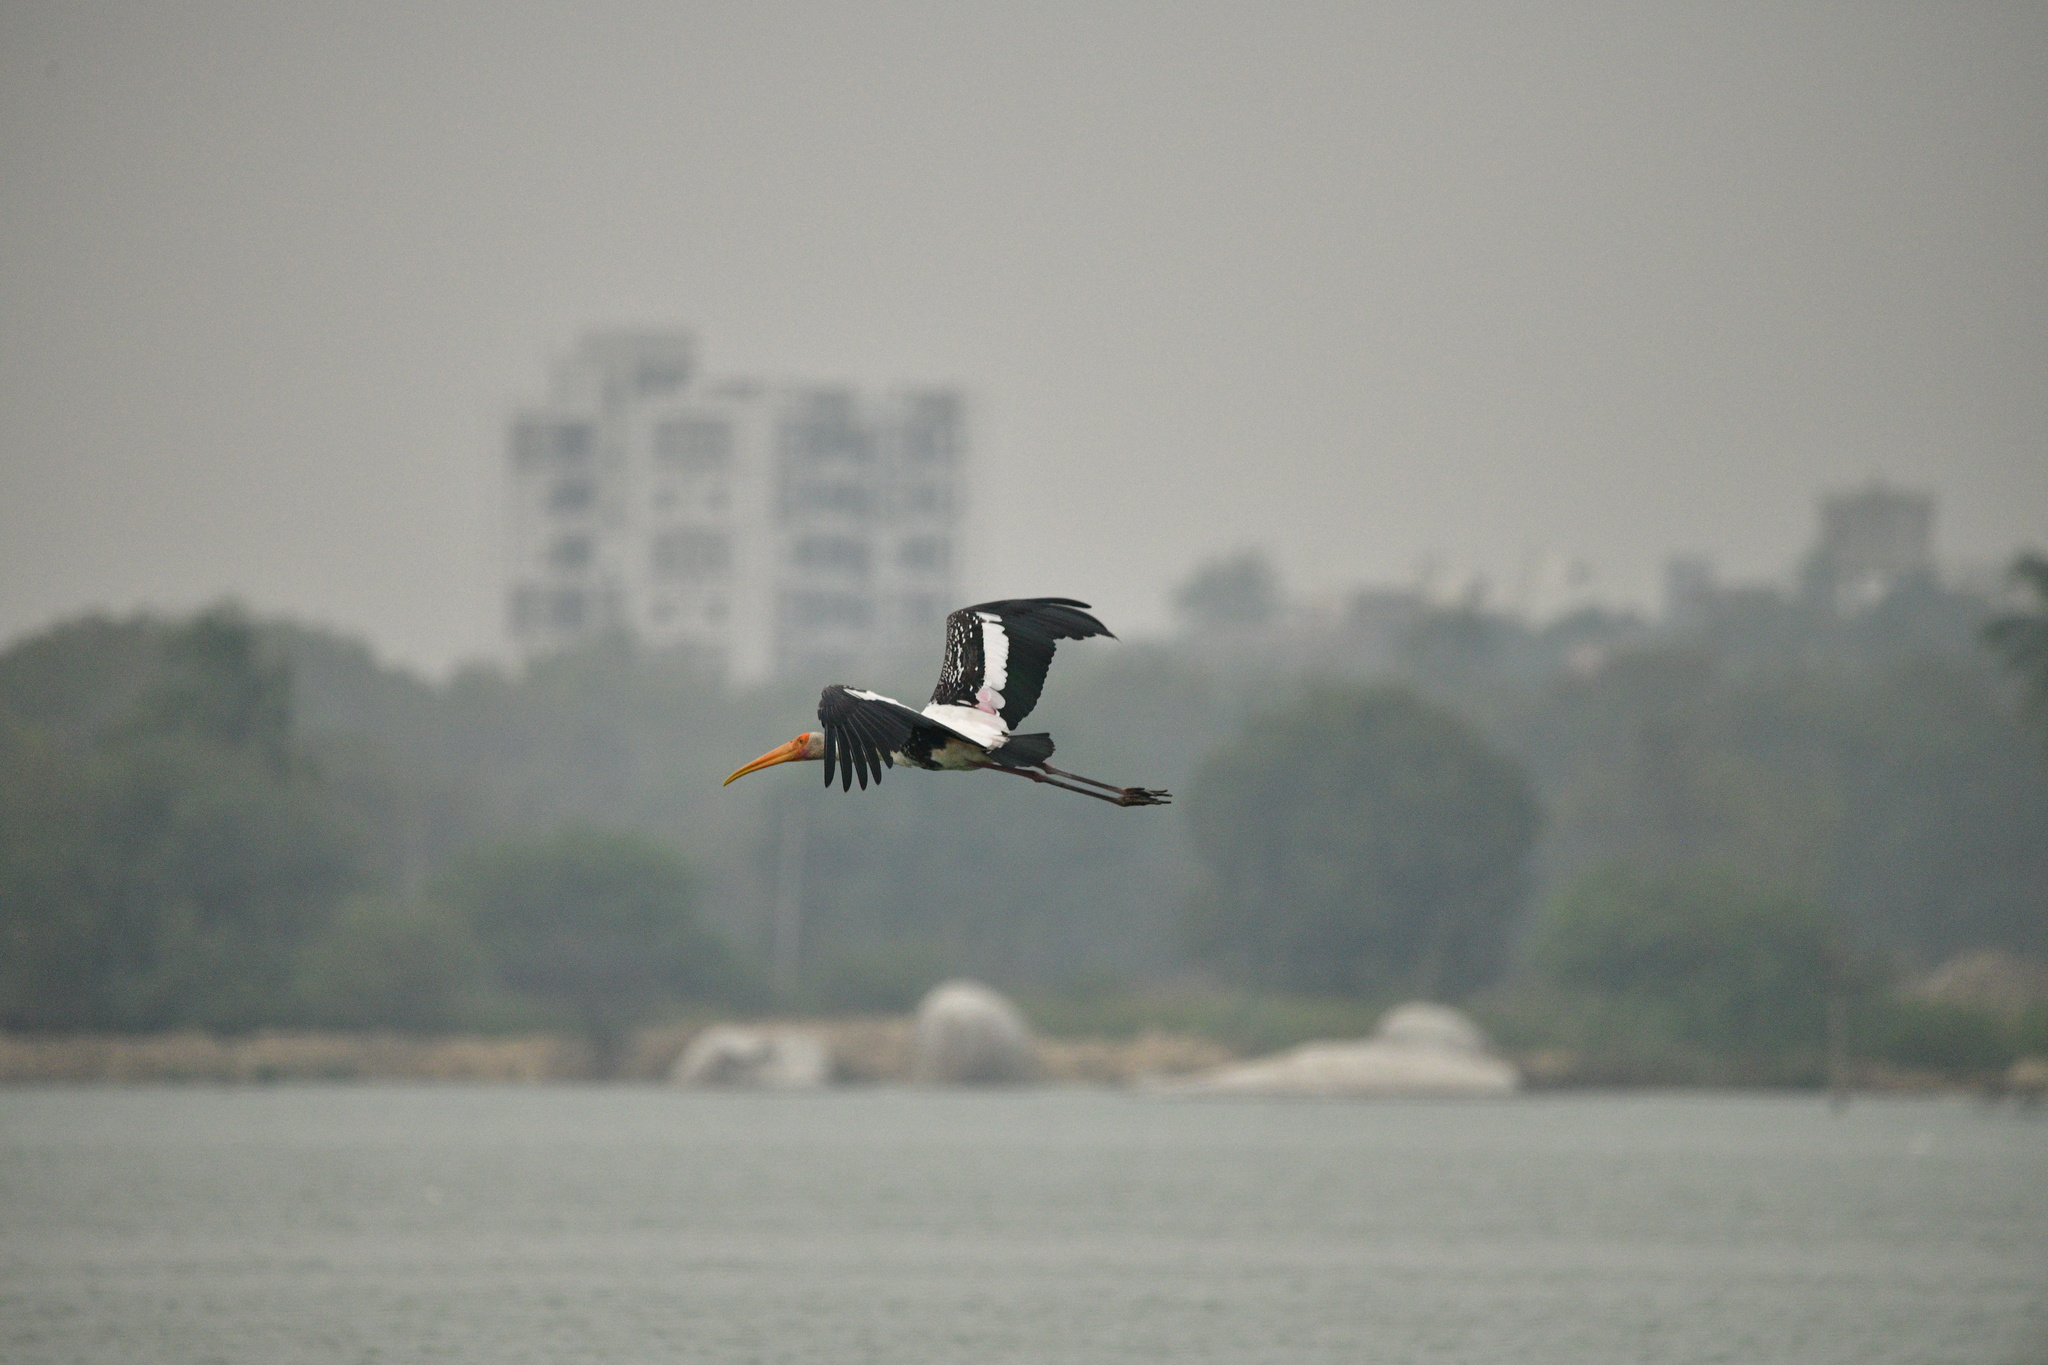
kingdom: Animalia
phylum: Chordata
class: Aves
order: Ciconiiformes
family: Ciconiidae
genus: Mycteria
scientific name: Mycteria leucocephala
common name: Painted stork
